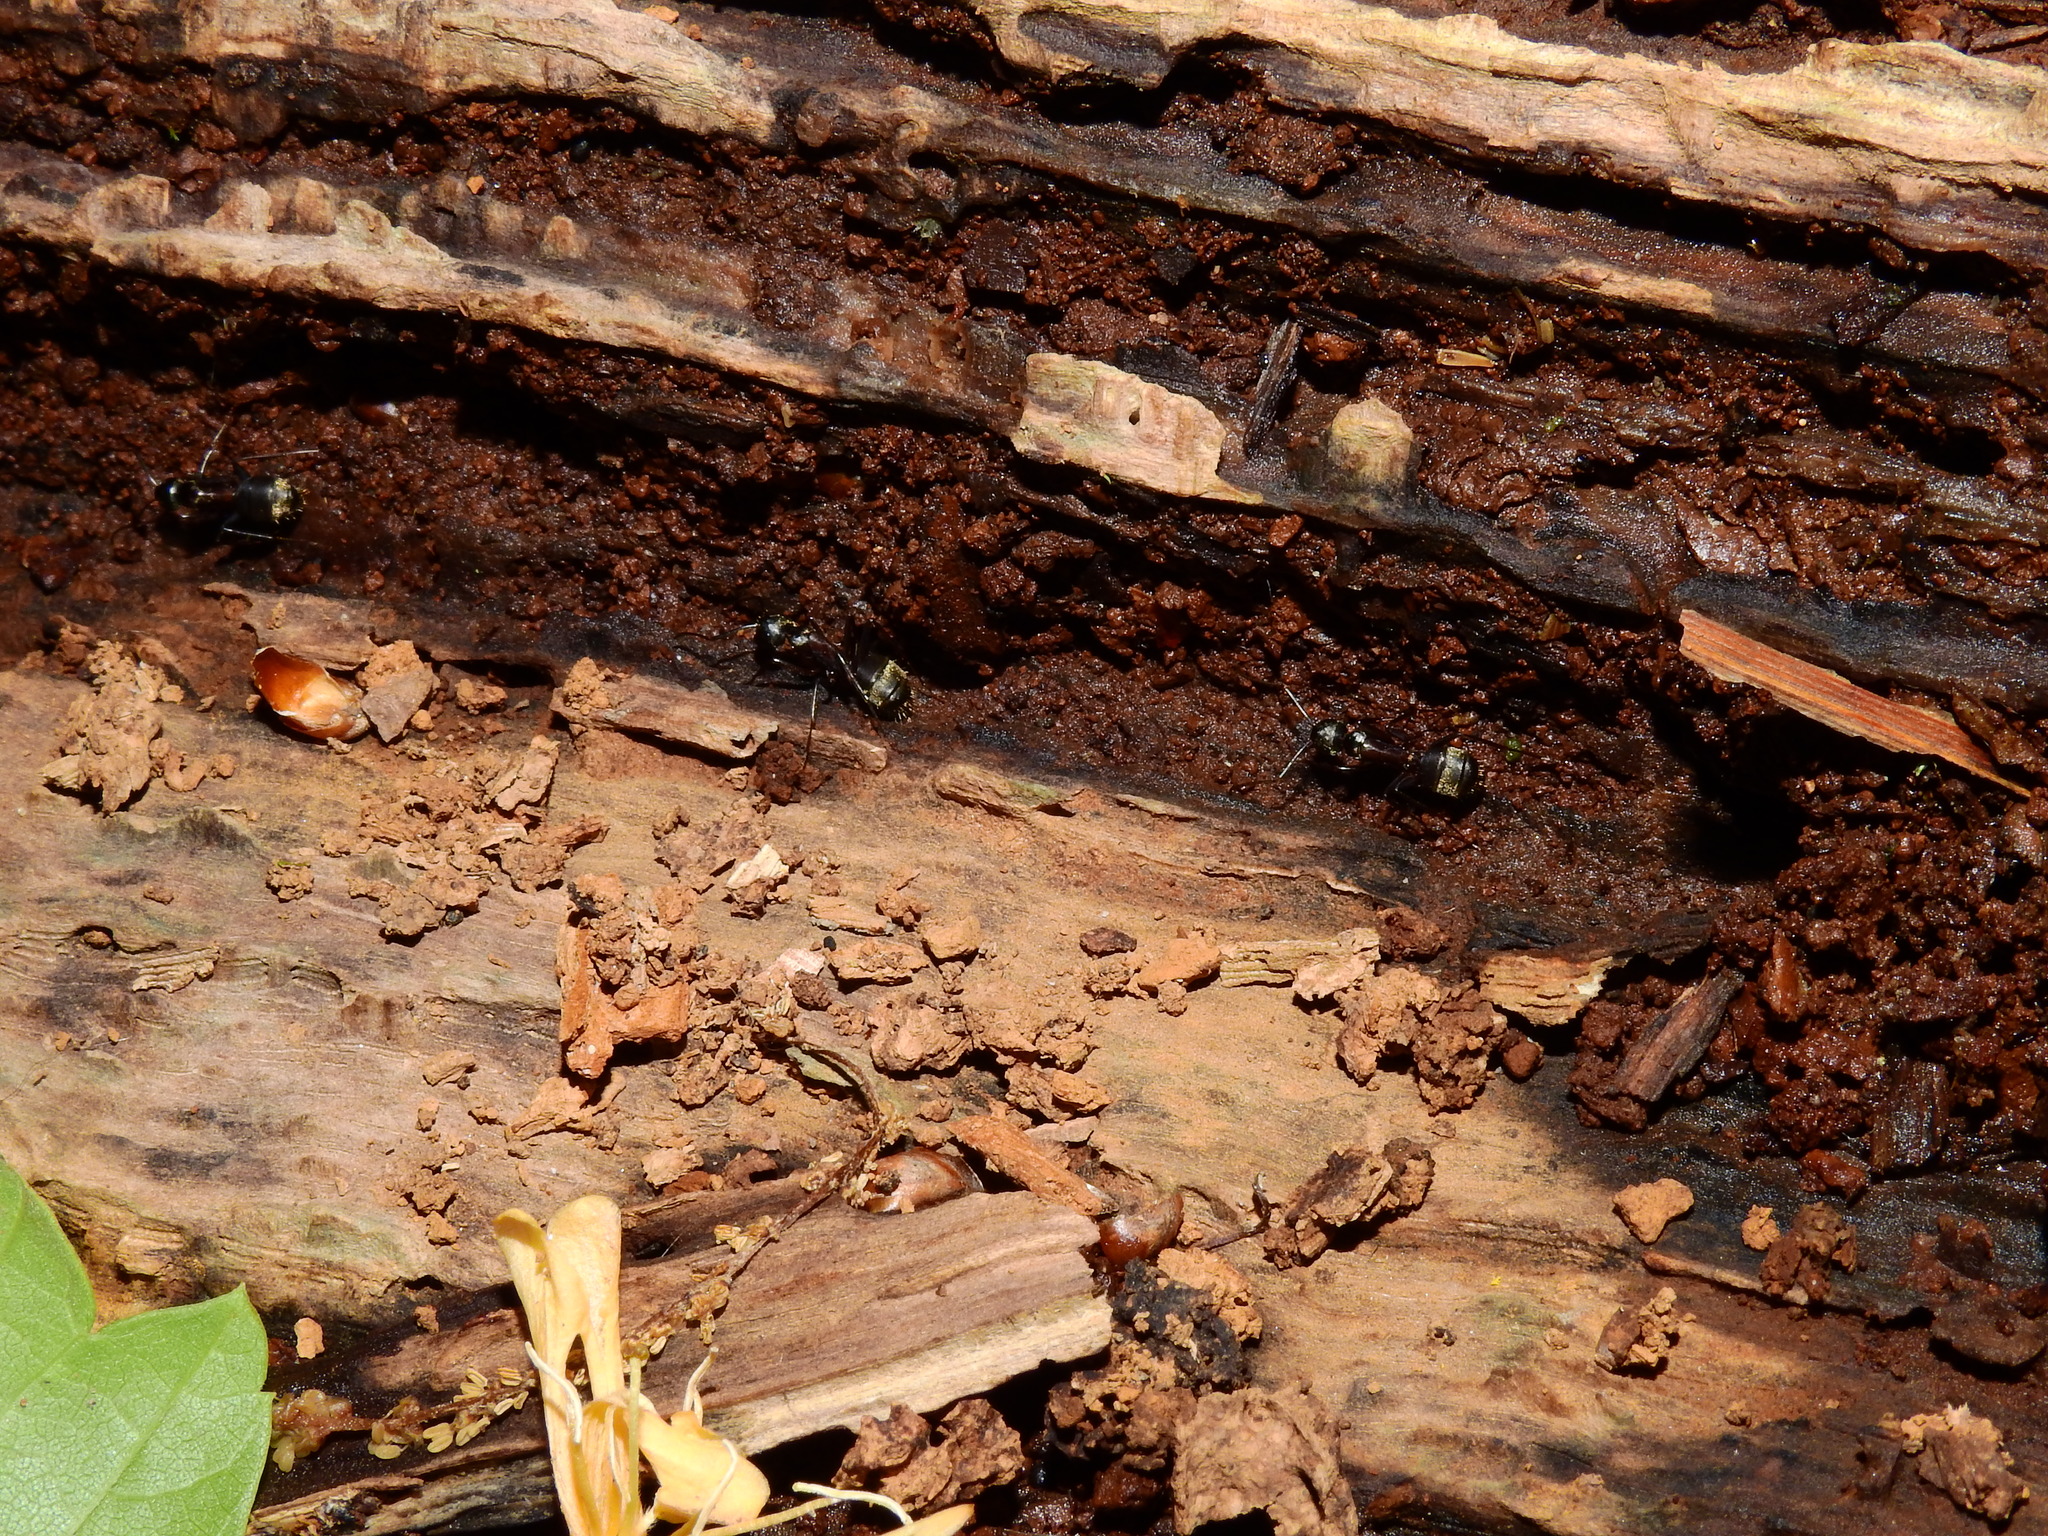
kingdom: Animalia
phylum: Arthropoda
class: Insecta
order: Hymenoptera
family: Formicidae
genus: Camponotus
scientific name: Camponotus chromaiodes
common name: Red carpenter ant
